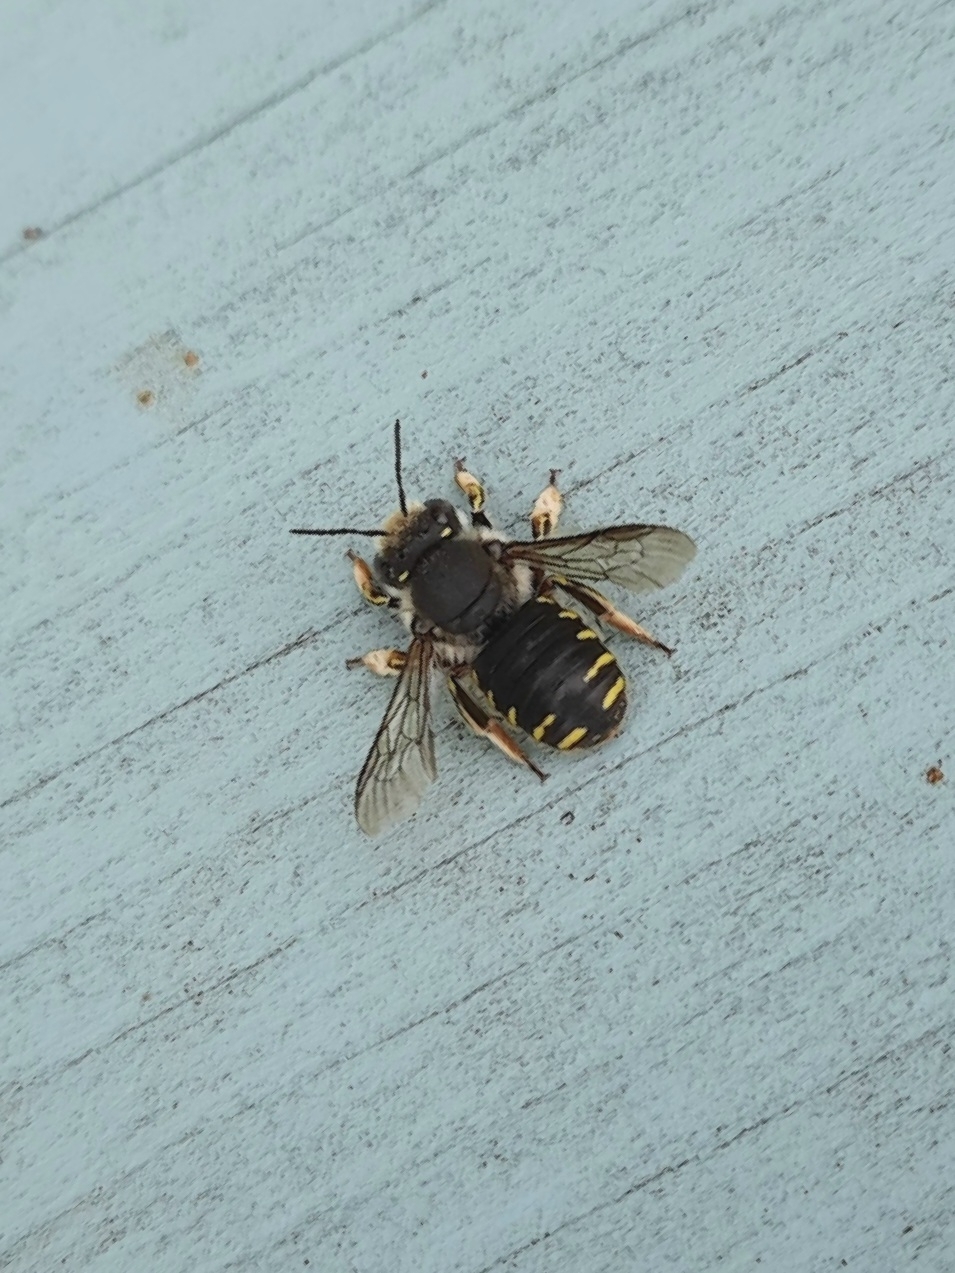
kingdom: Animalia
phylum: Arthropoda
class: Insecta
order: Hymenoptera
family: Megachilidae
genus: Anthidium
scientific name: Anthidium manicatum
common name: Wool carder bee
